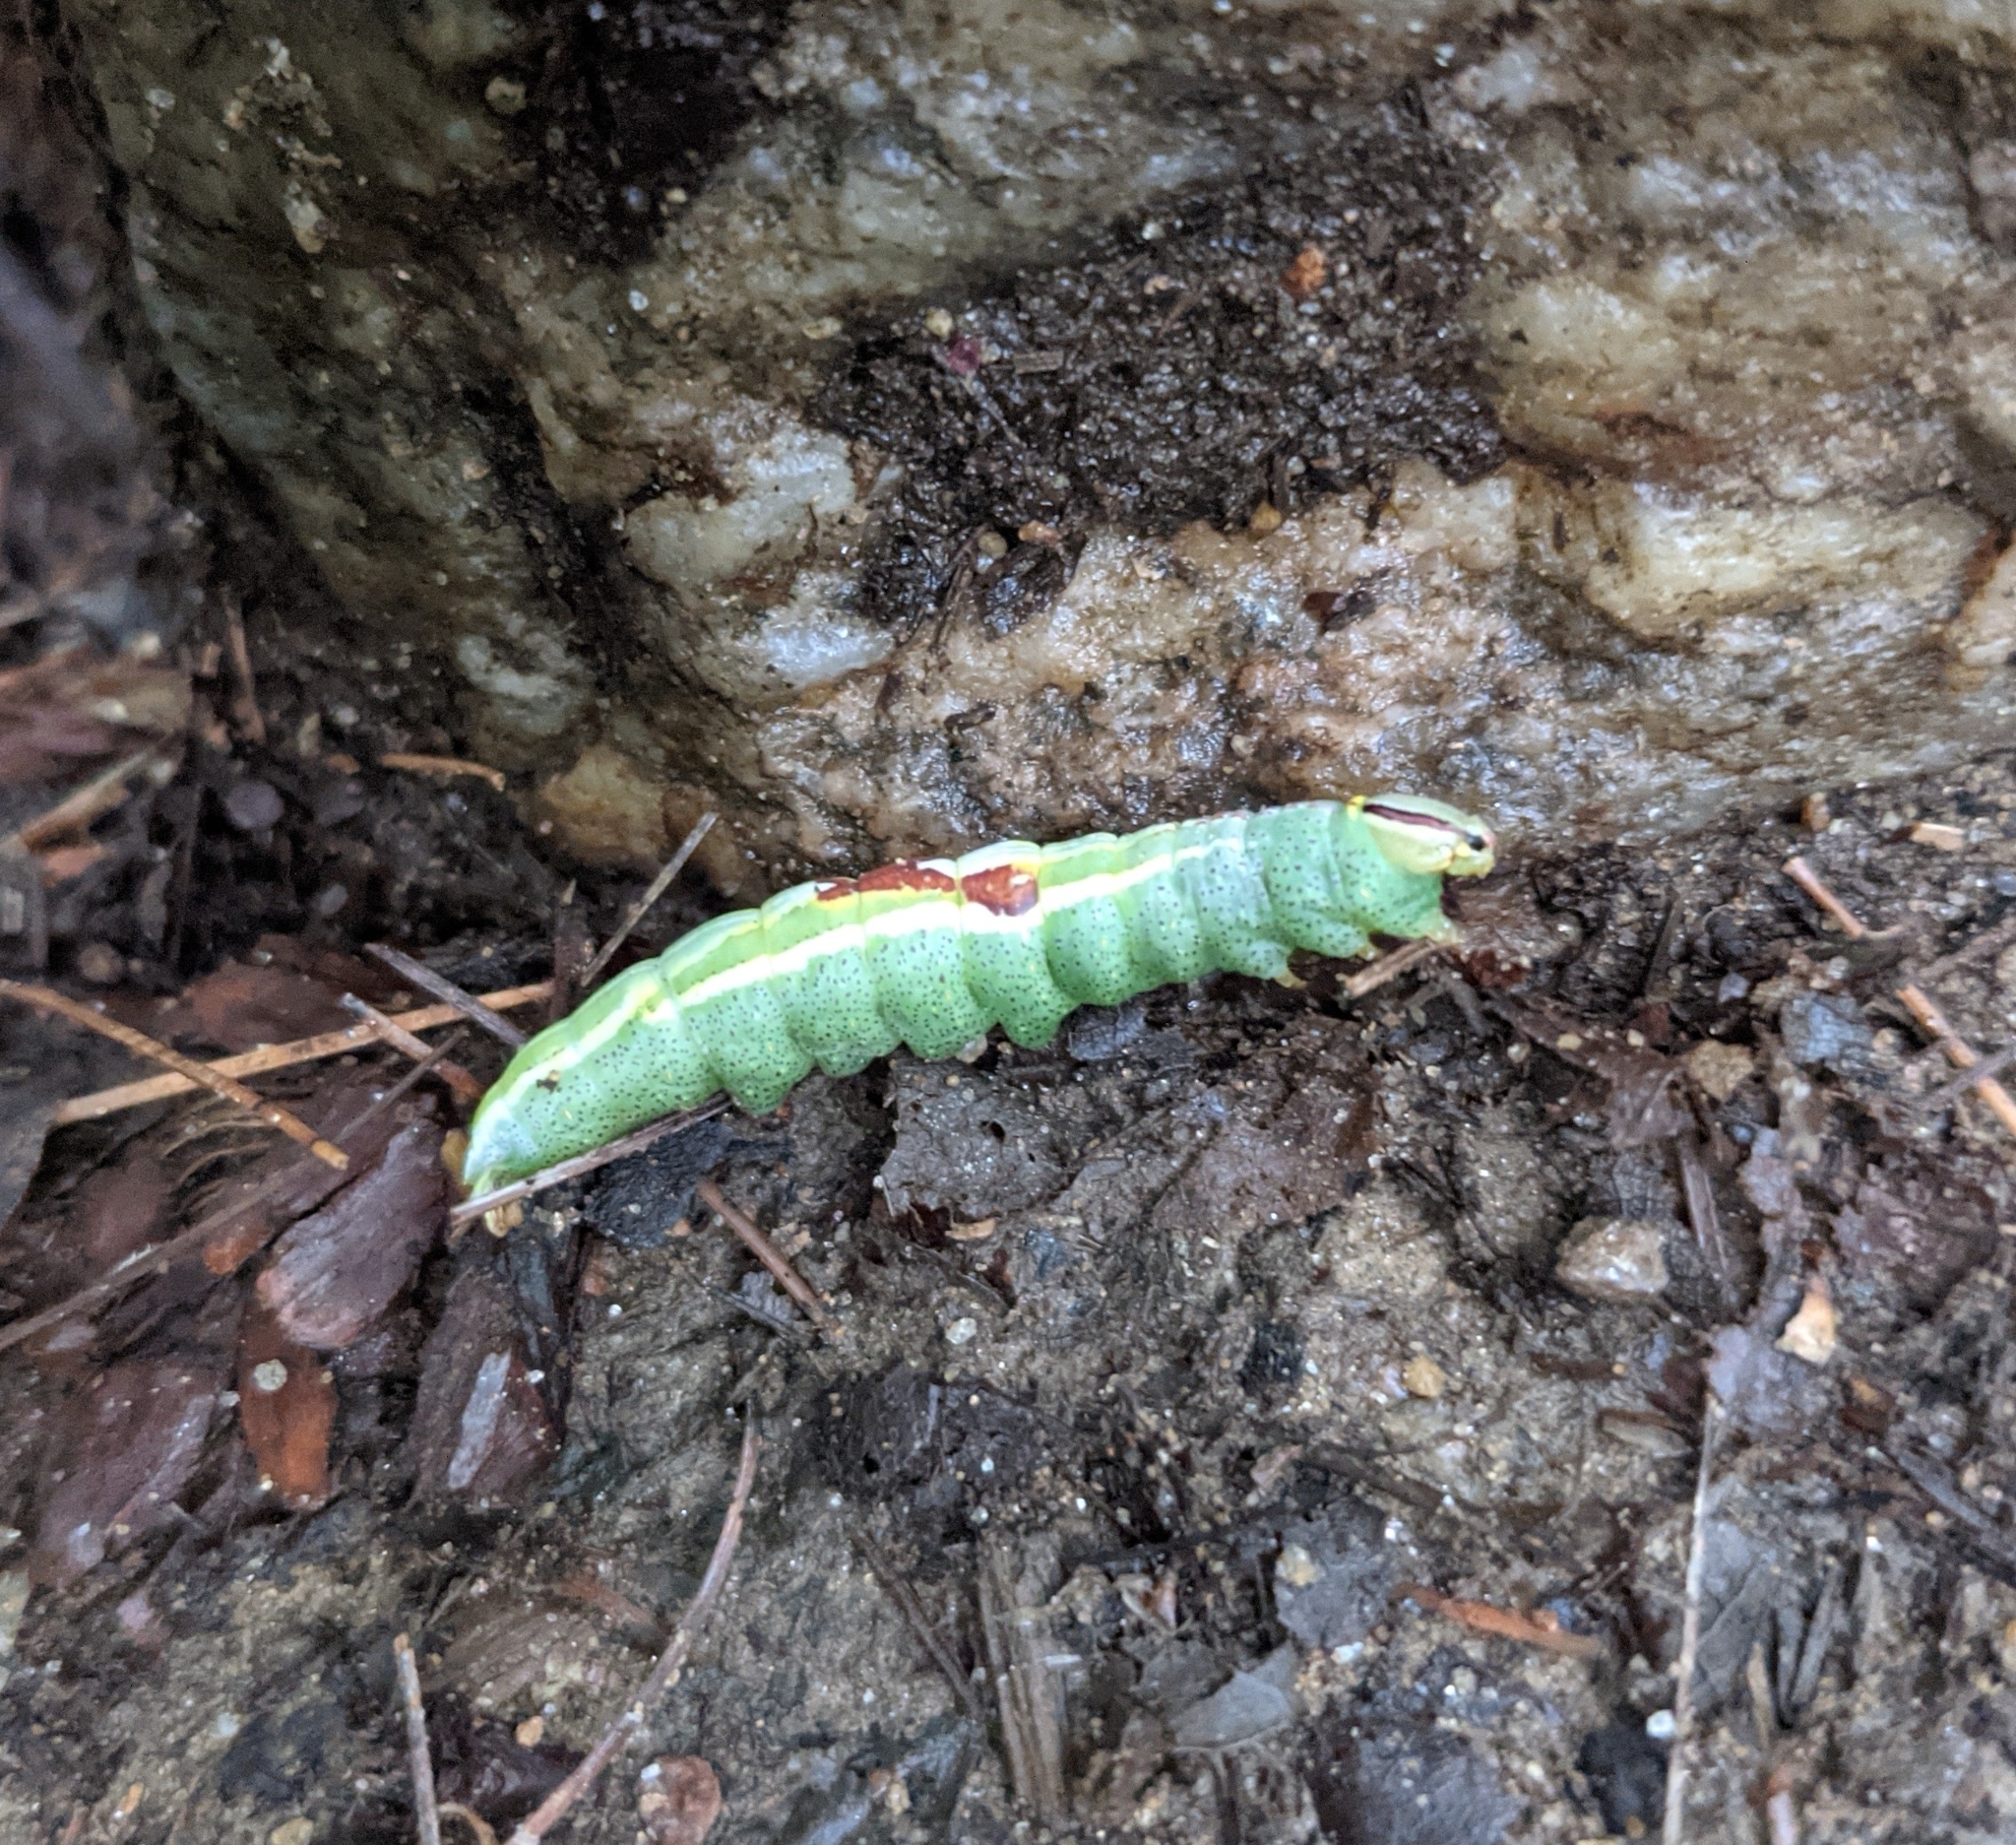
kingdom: Animalia
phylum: Arthropoda
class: Insecta
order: Lepidoptera
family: Notodontidae
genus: Disphragis
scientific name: Disphragis Cecrita guttivitta
